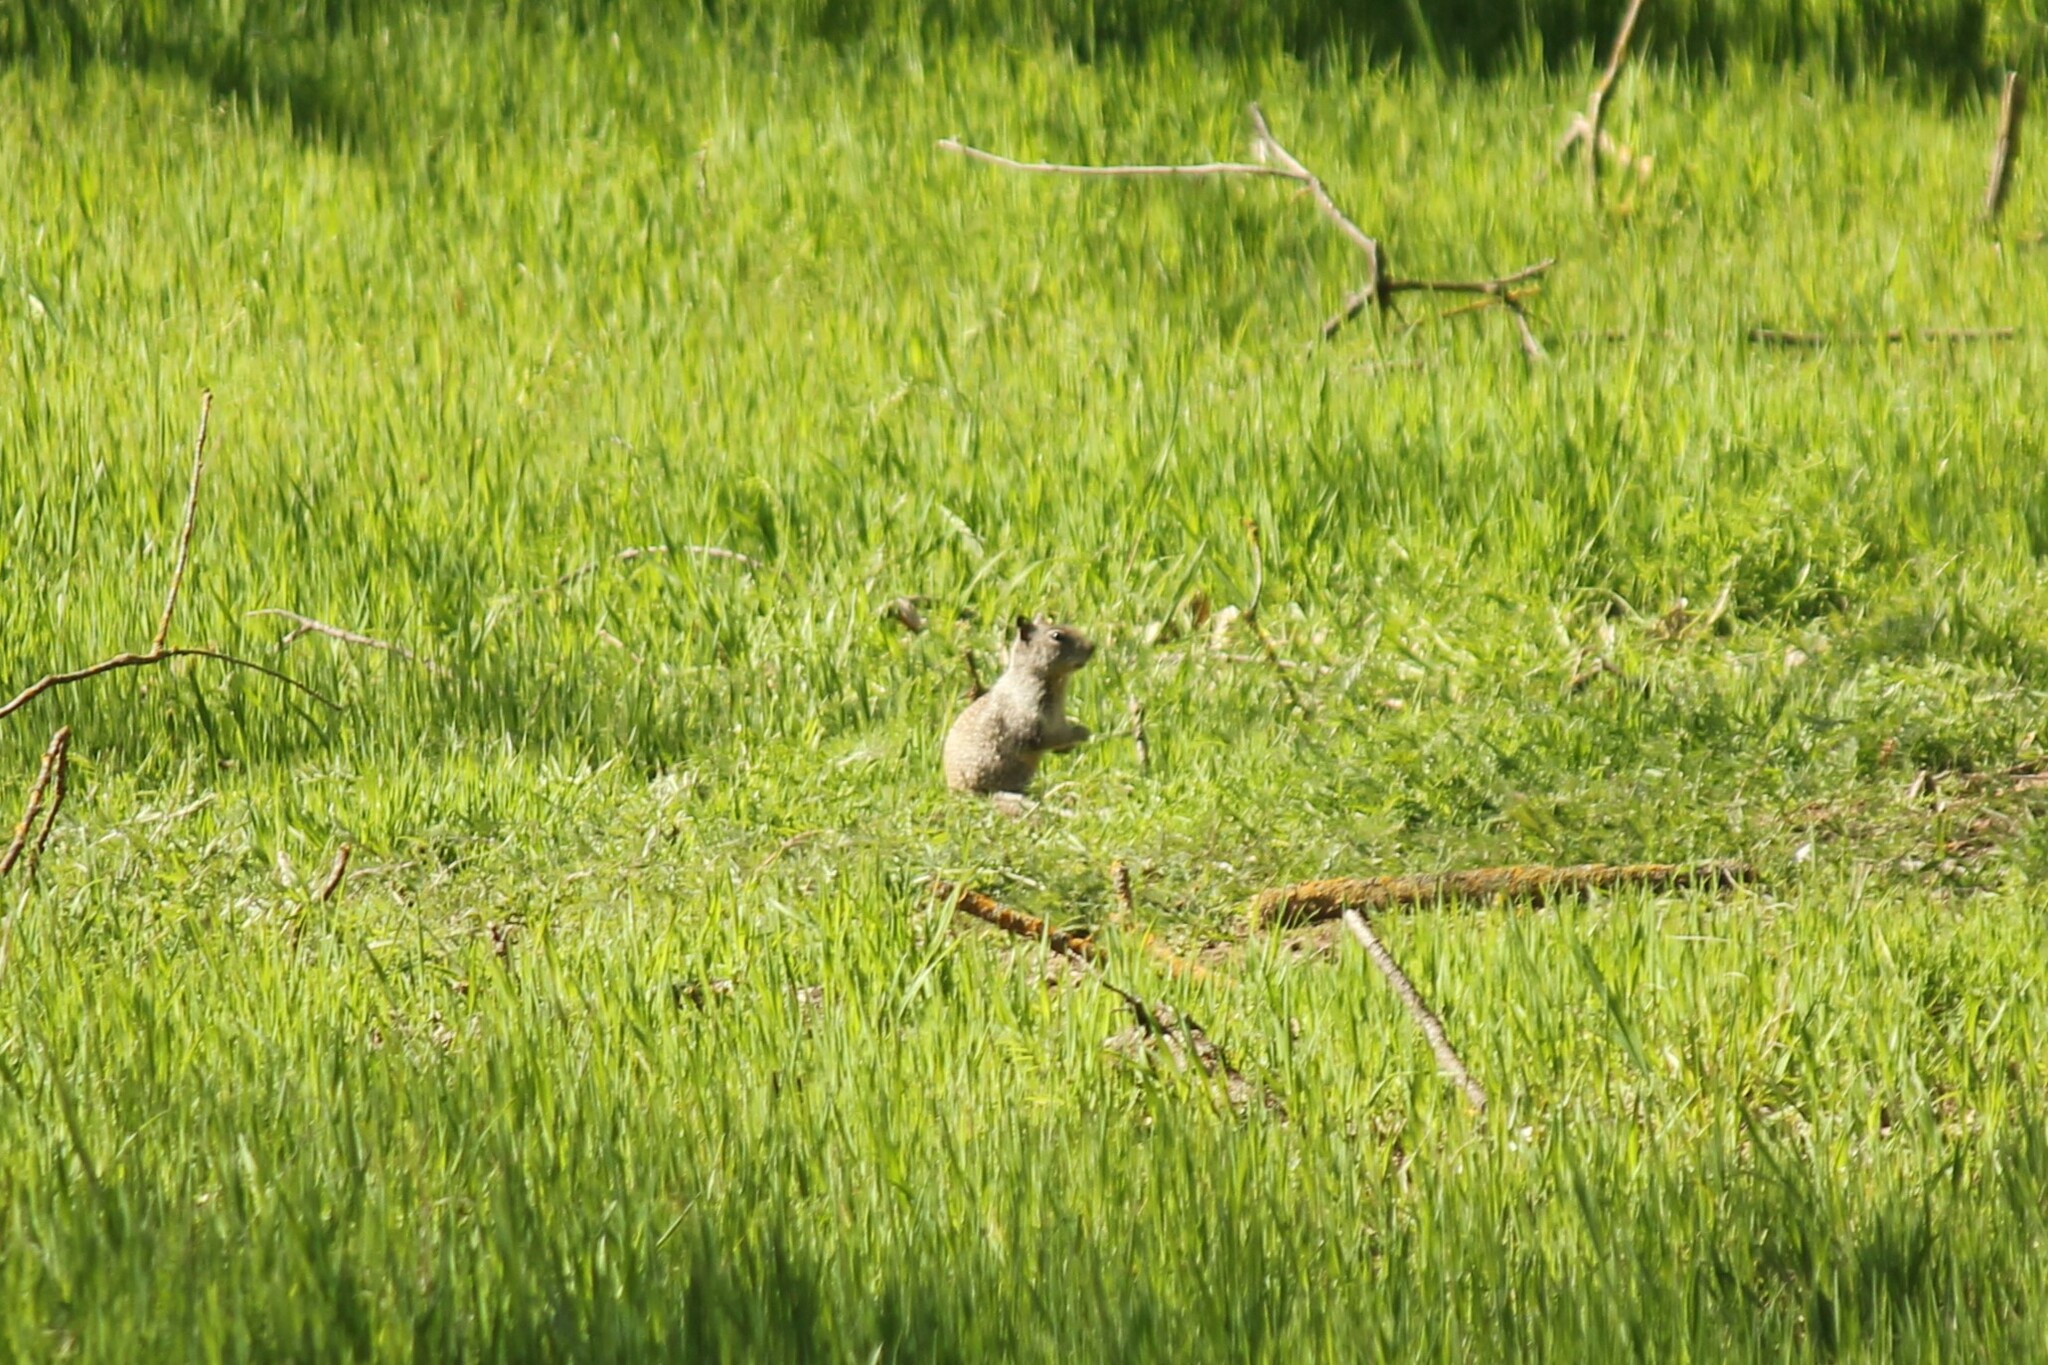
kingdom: Animalia
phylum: Chordata
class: Mammalia
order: Rodentia
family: Sciuridae
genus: Otospermophilus
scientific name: Otospermophilus beecheyi
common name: California ground squirrel
